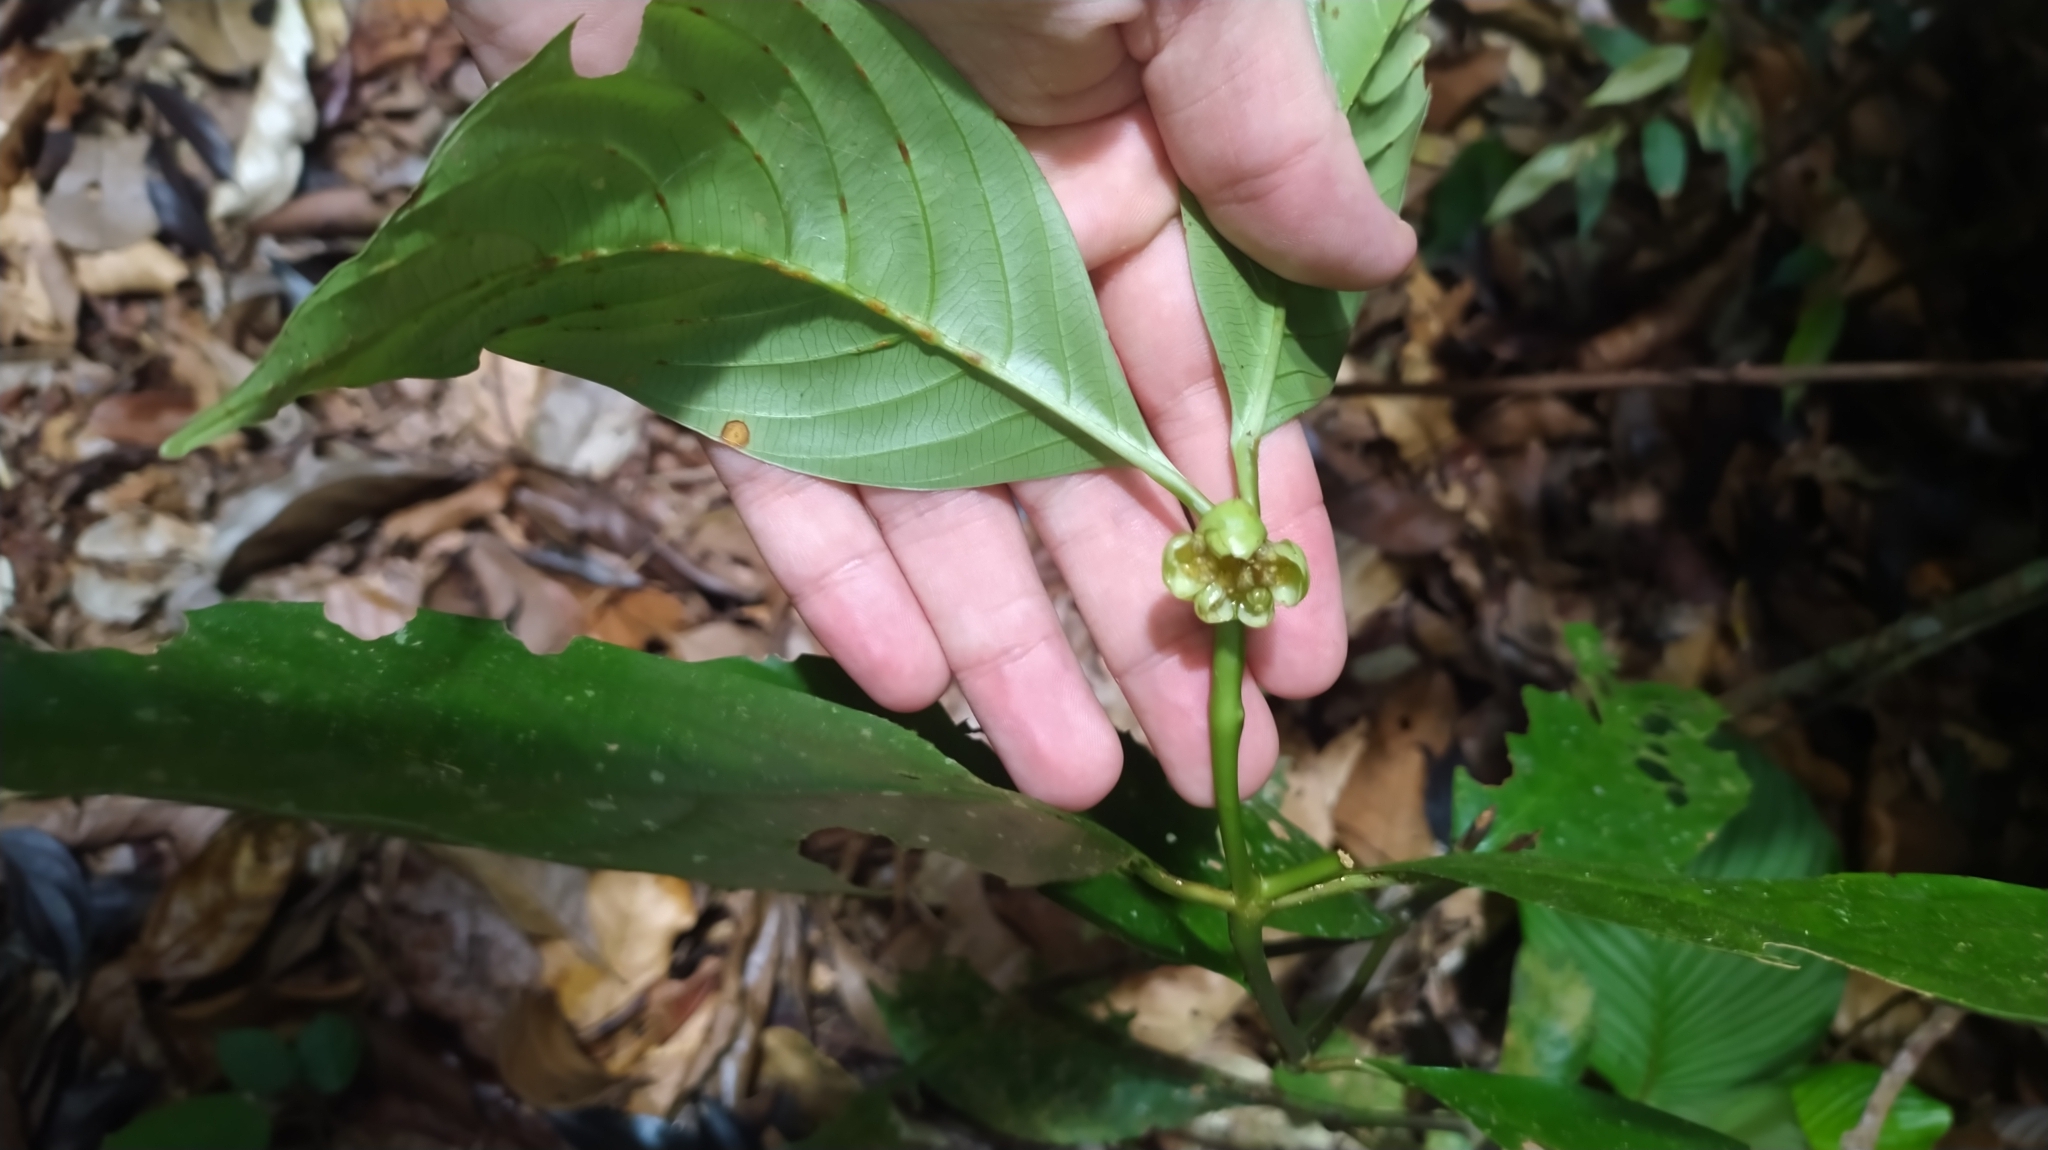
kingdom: Plantae
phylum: Tracheophyta
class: Magnoliopsida
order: Gentianales
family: Rubiaceae
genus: Palicourea
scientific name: Palicourea dichotoma
